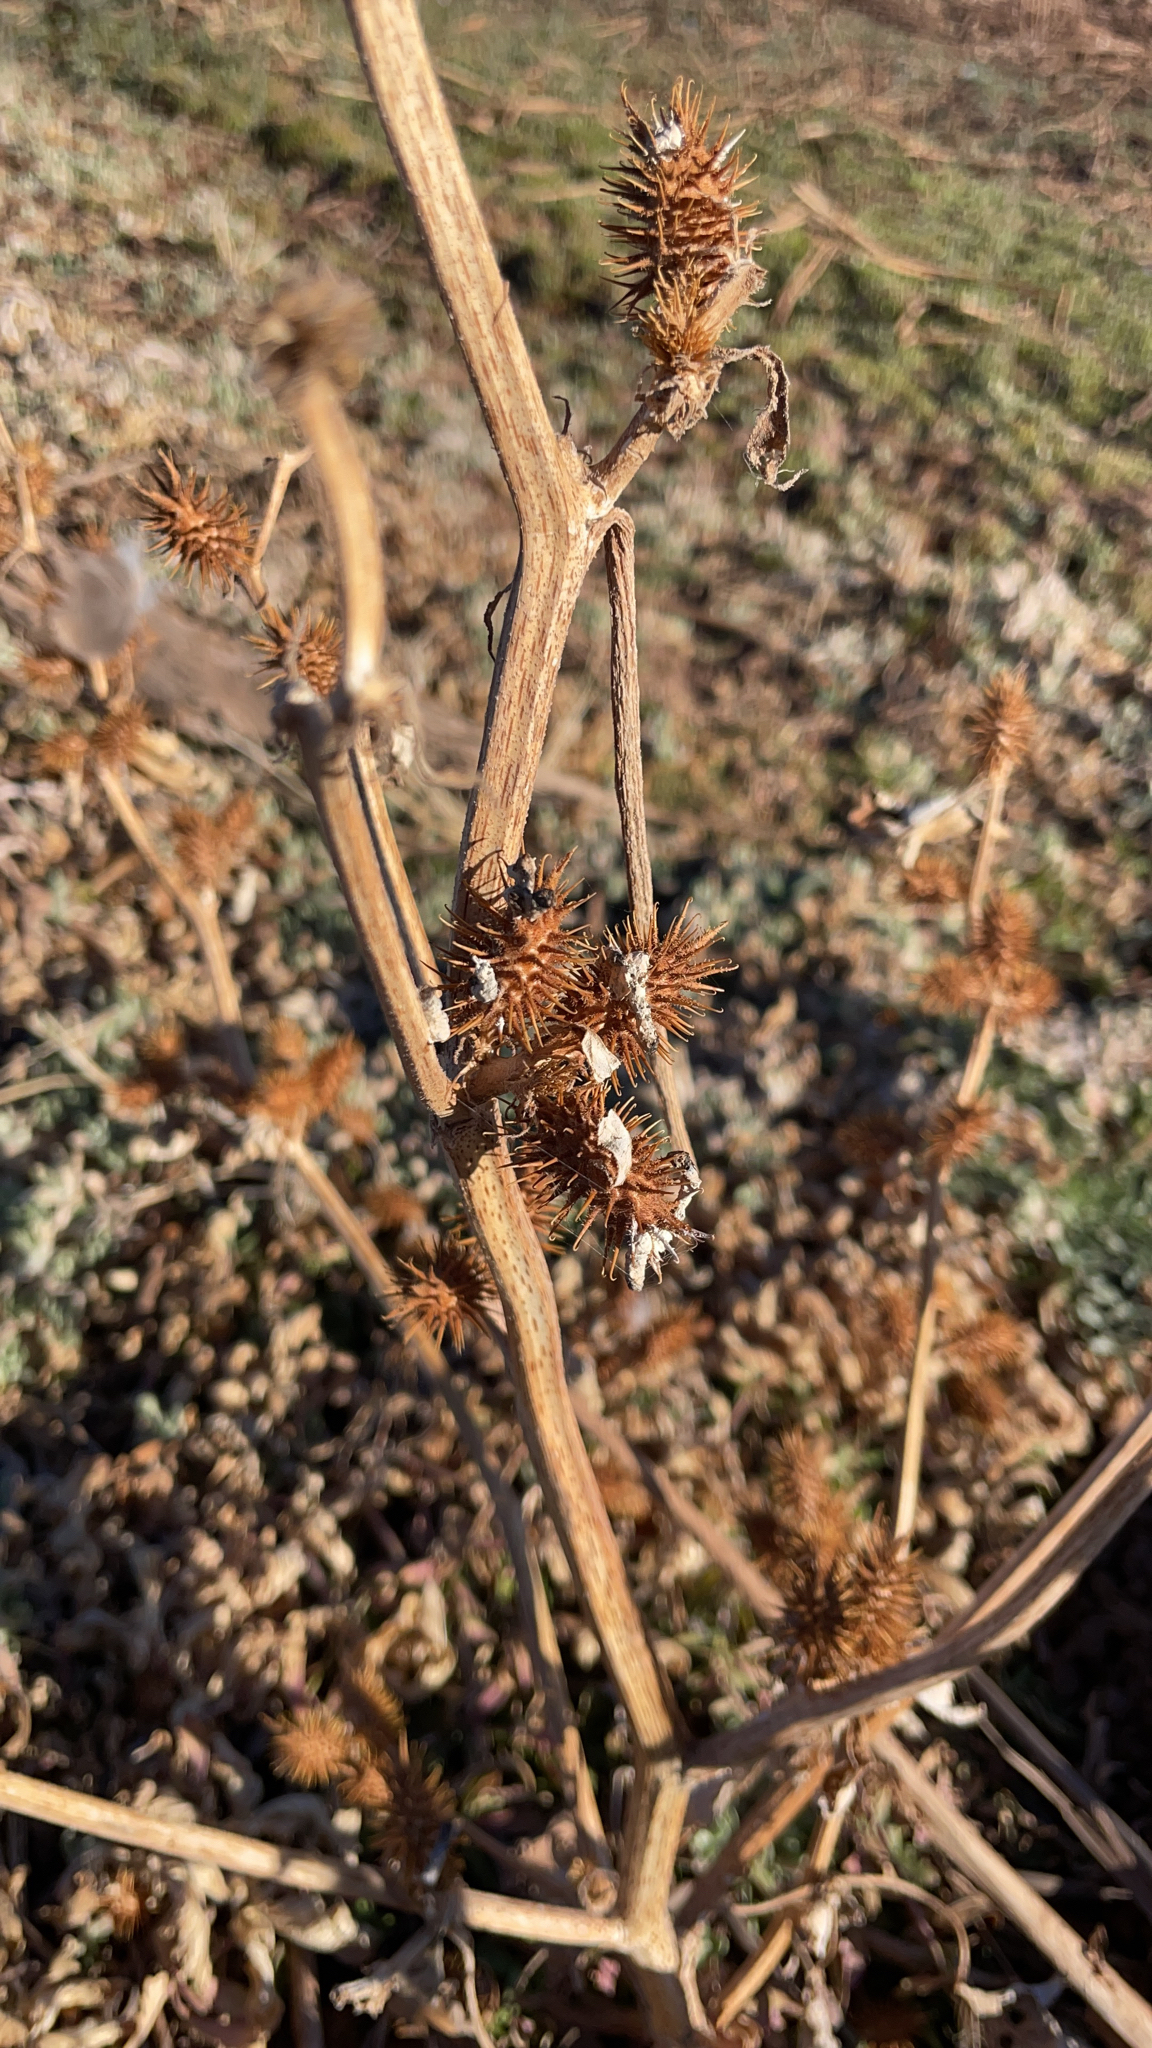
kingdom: Plantae
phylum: Tracheophyta
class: Magnoliopsida
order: Asterales
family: Asteraceae
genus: Xanthium
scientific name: Xanthium strumarium
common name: Rough cocklebur
